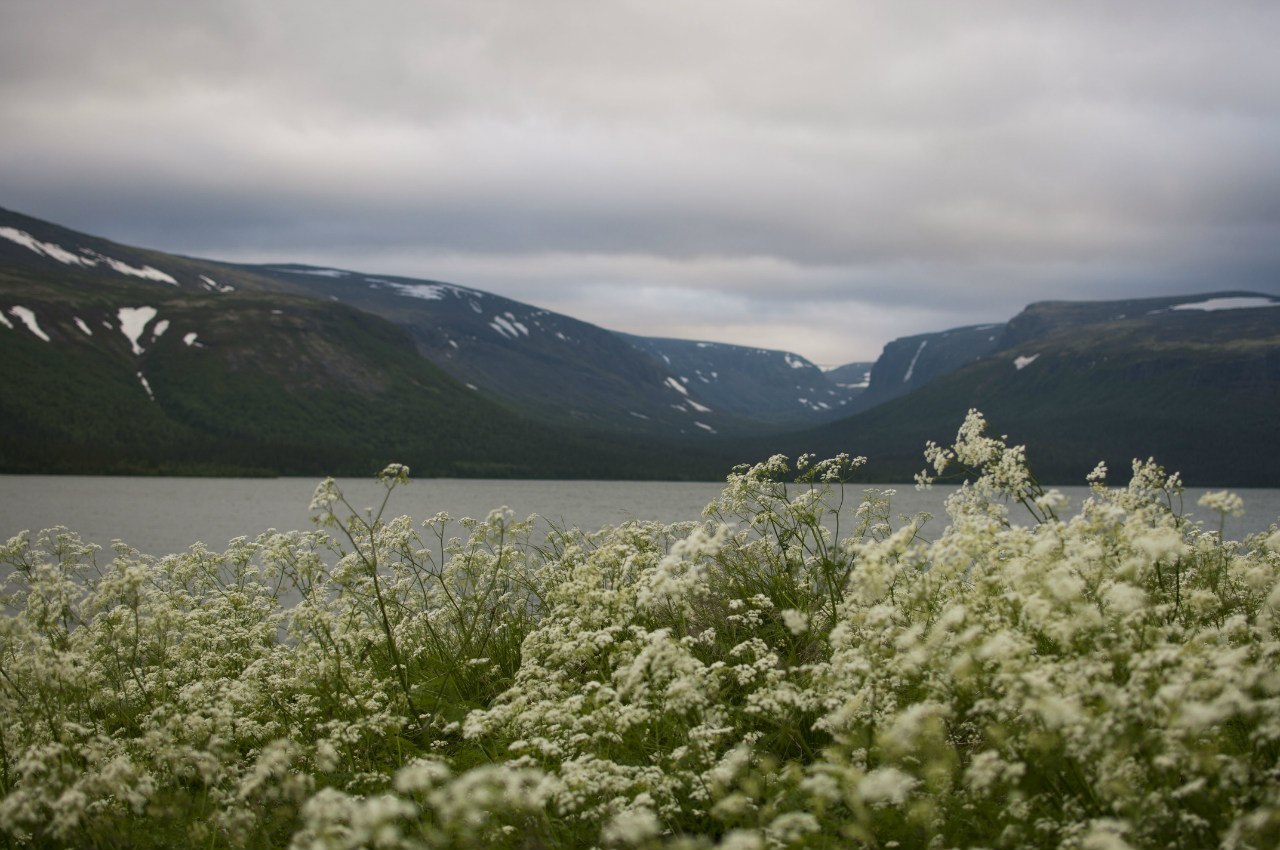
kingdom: Plantae
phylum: Tracheophyta
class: Magnoliopsida
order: Apiales
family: Apiaceae
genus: Anthriscus
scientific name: Anthriscus sylvestris
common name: Cow parsley
